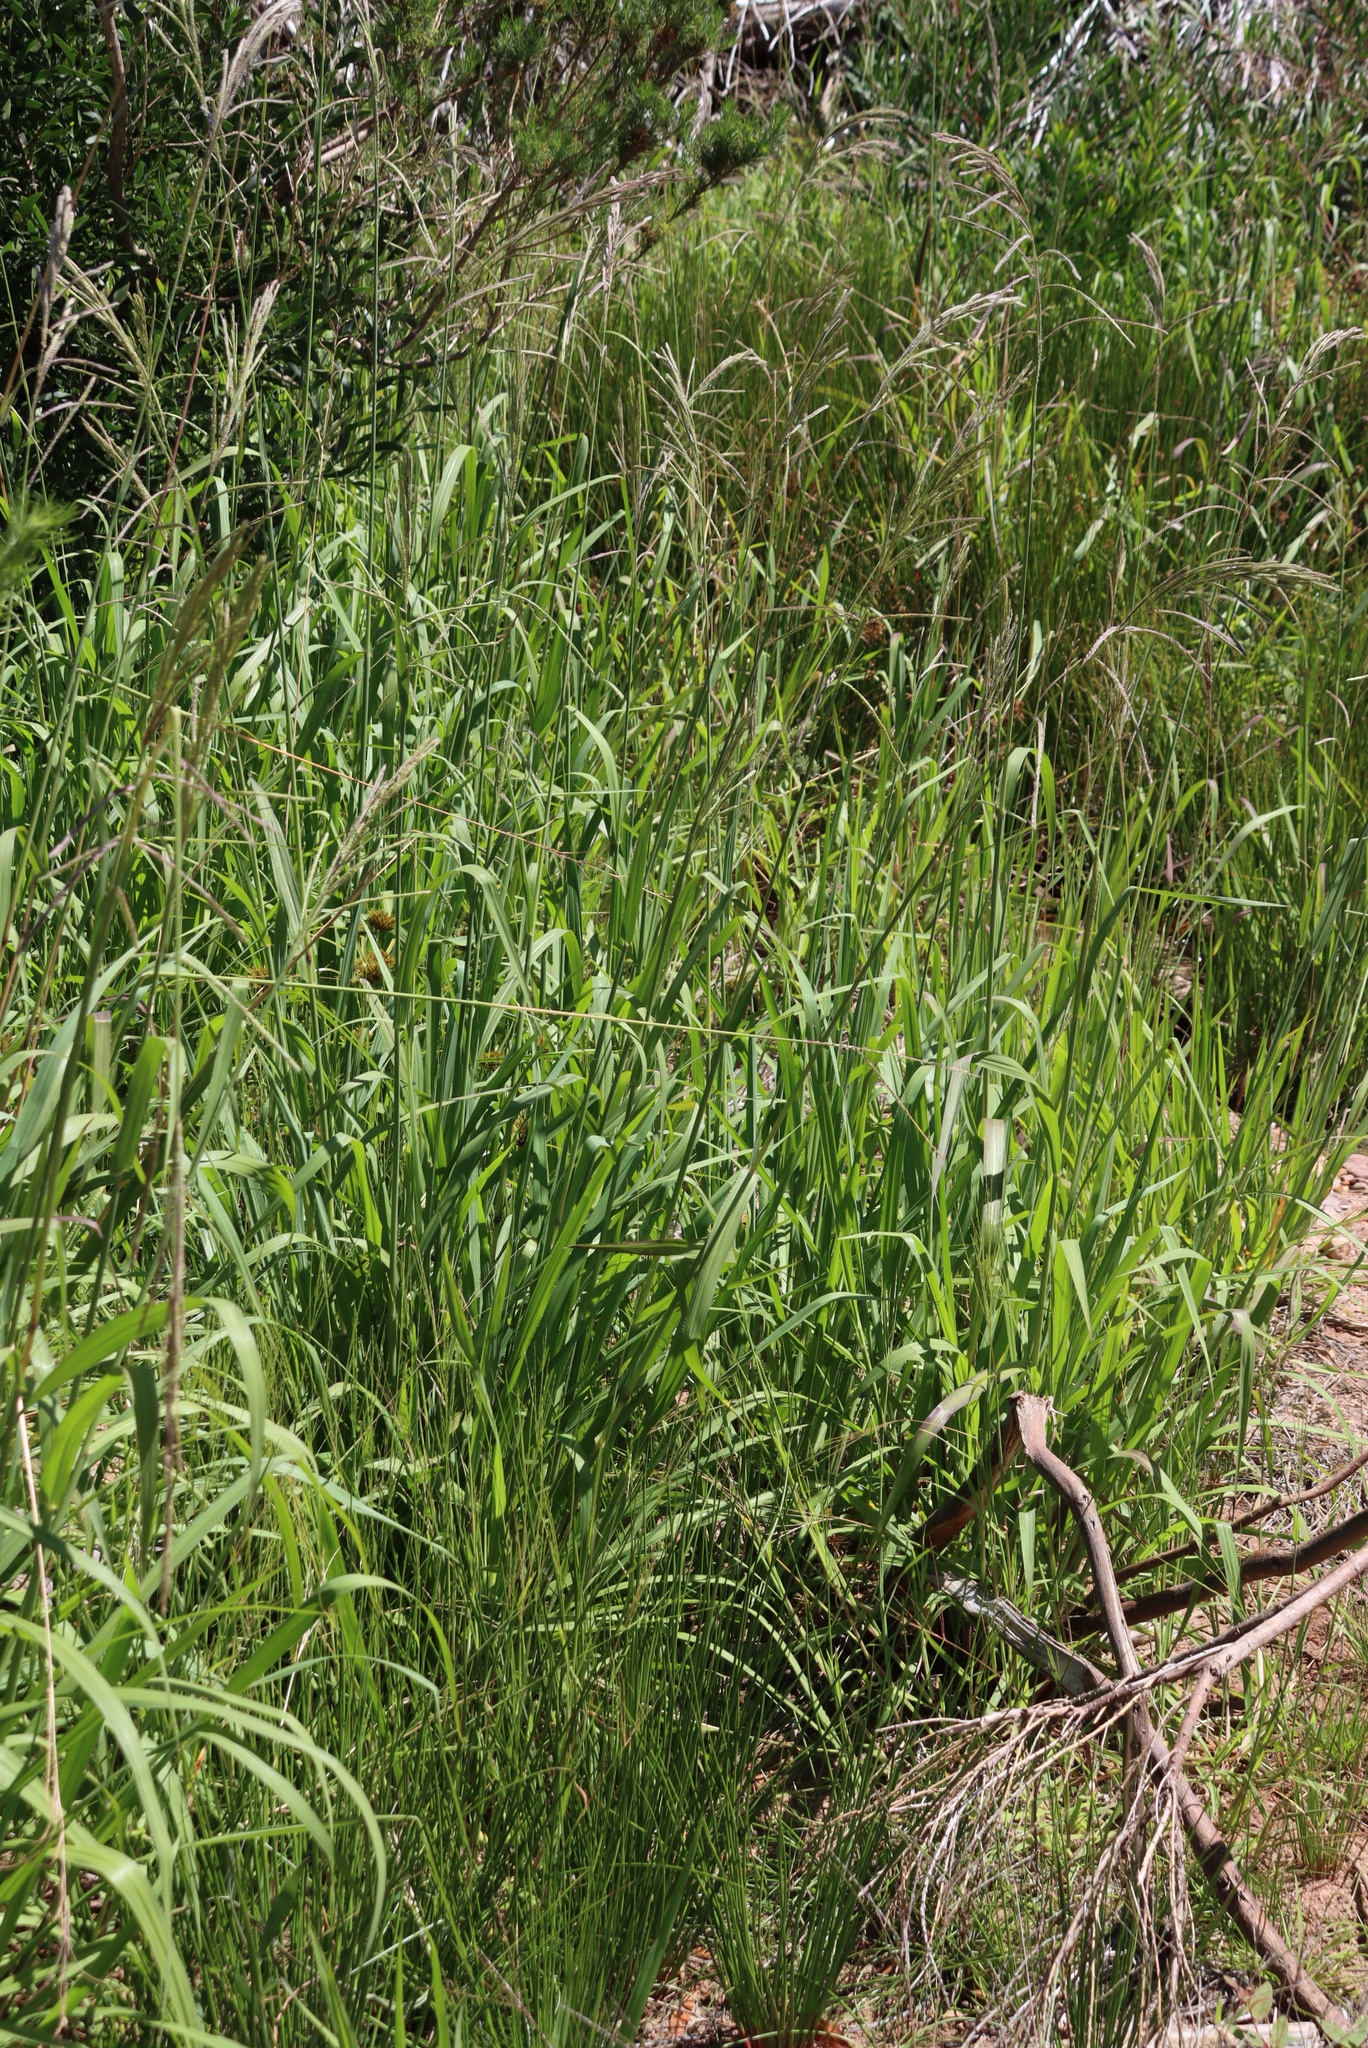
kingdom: Plantae
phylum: Tracheophyta
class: Liliopsida
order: Poales
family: Poaceae
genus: Paspalum
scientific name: Paspalum urvillei
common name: Vasey's grass
